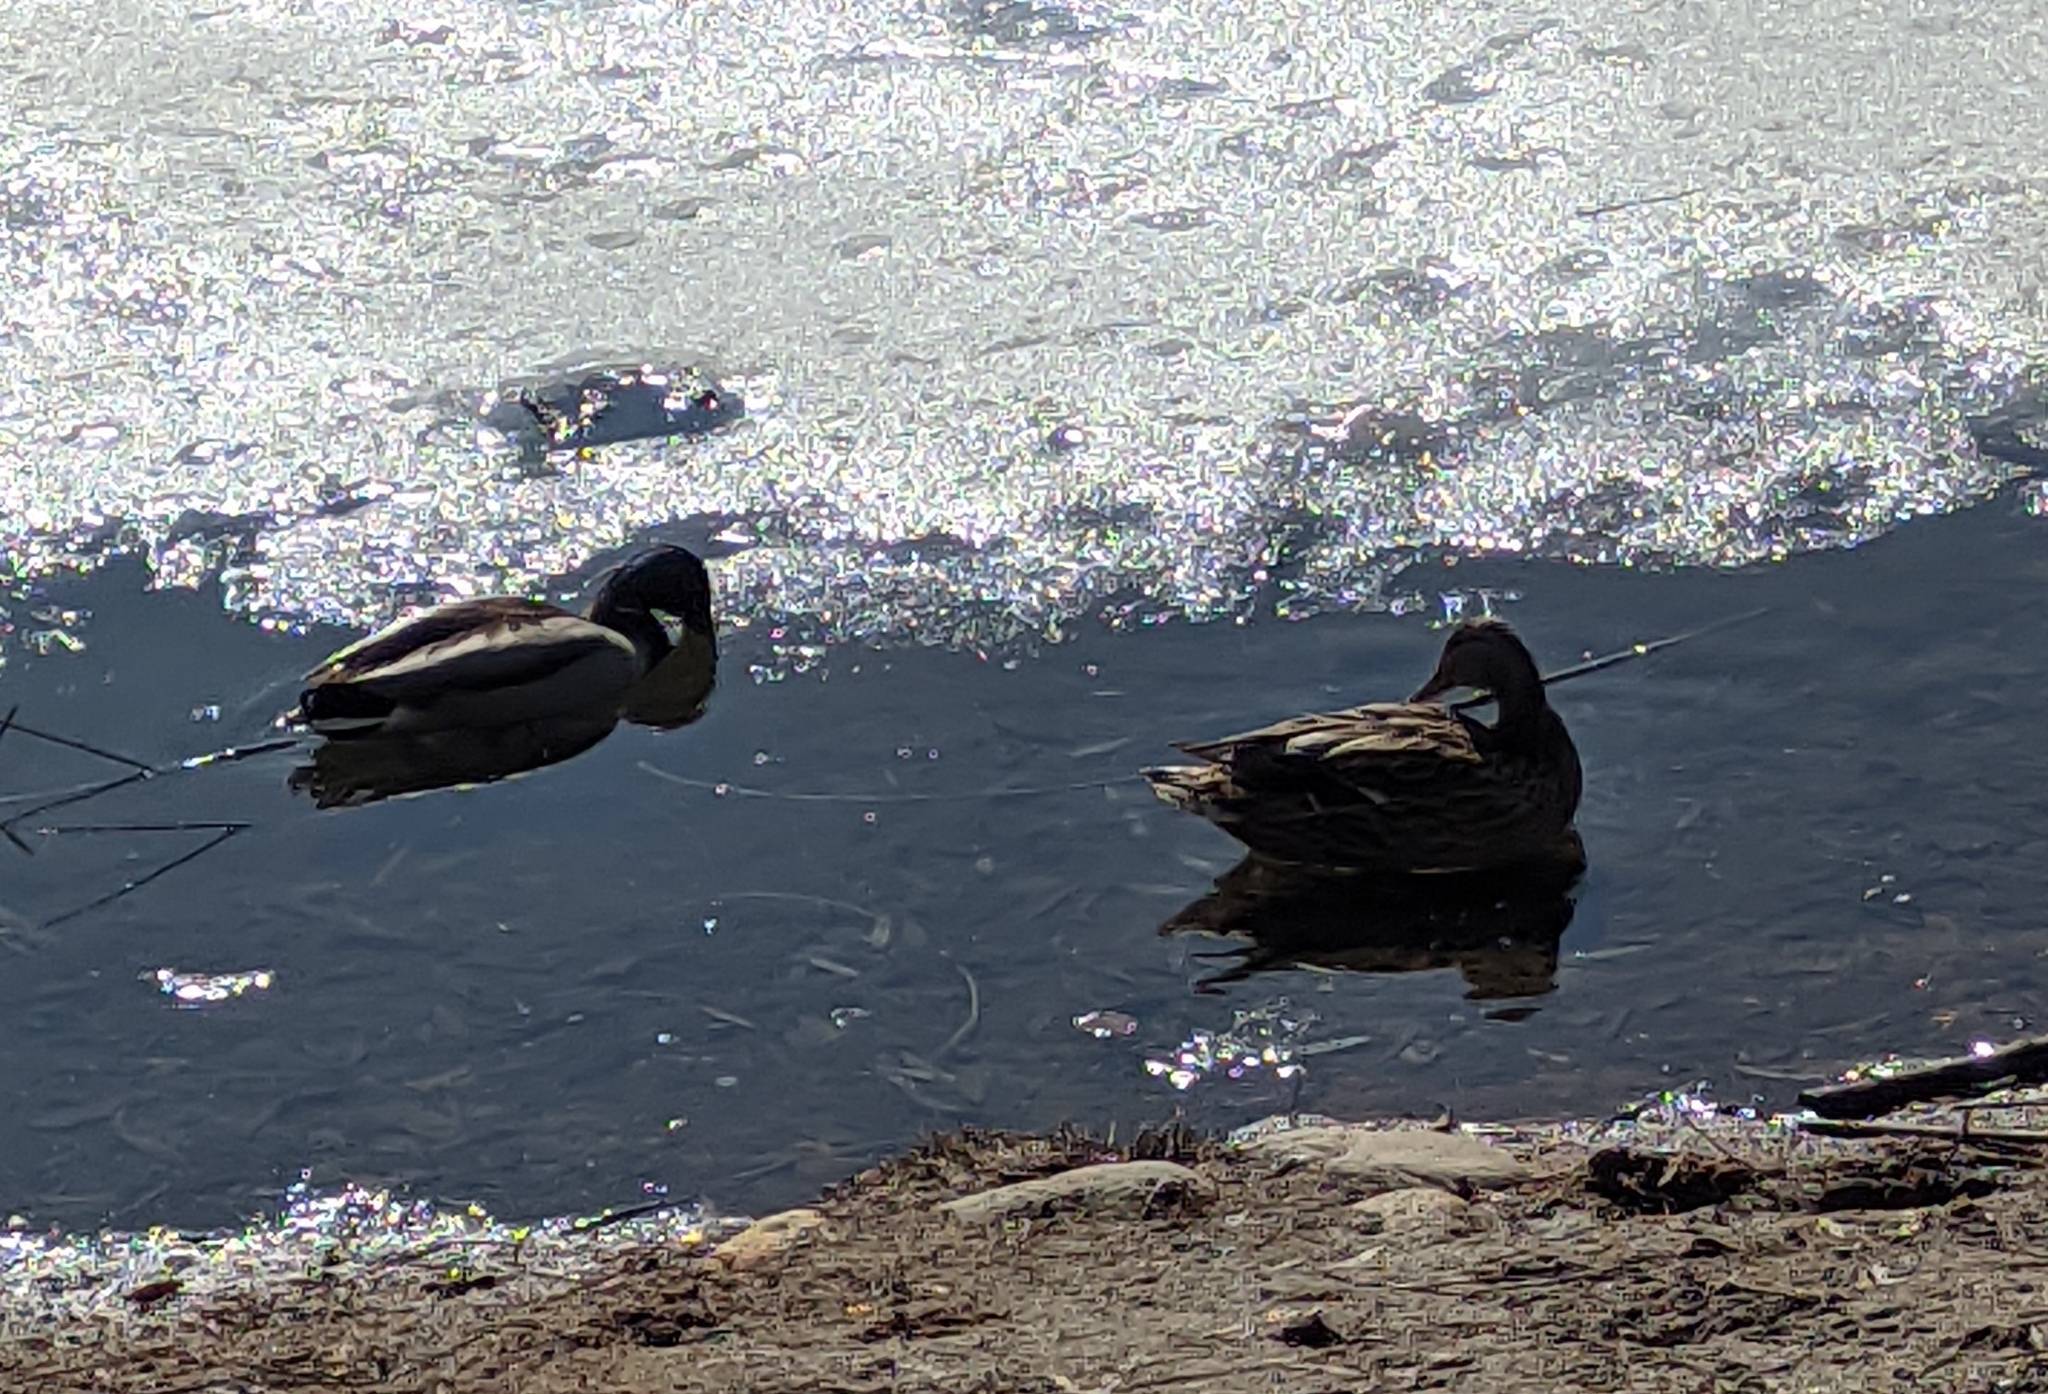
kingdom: Animalia
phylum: Chordata
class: Aves
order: Anseriformes
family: Anatidae
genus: Anas
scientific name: Anas platyrhynchos
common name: Mallard
